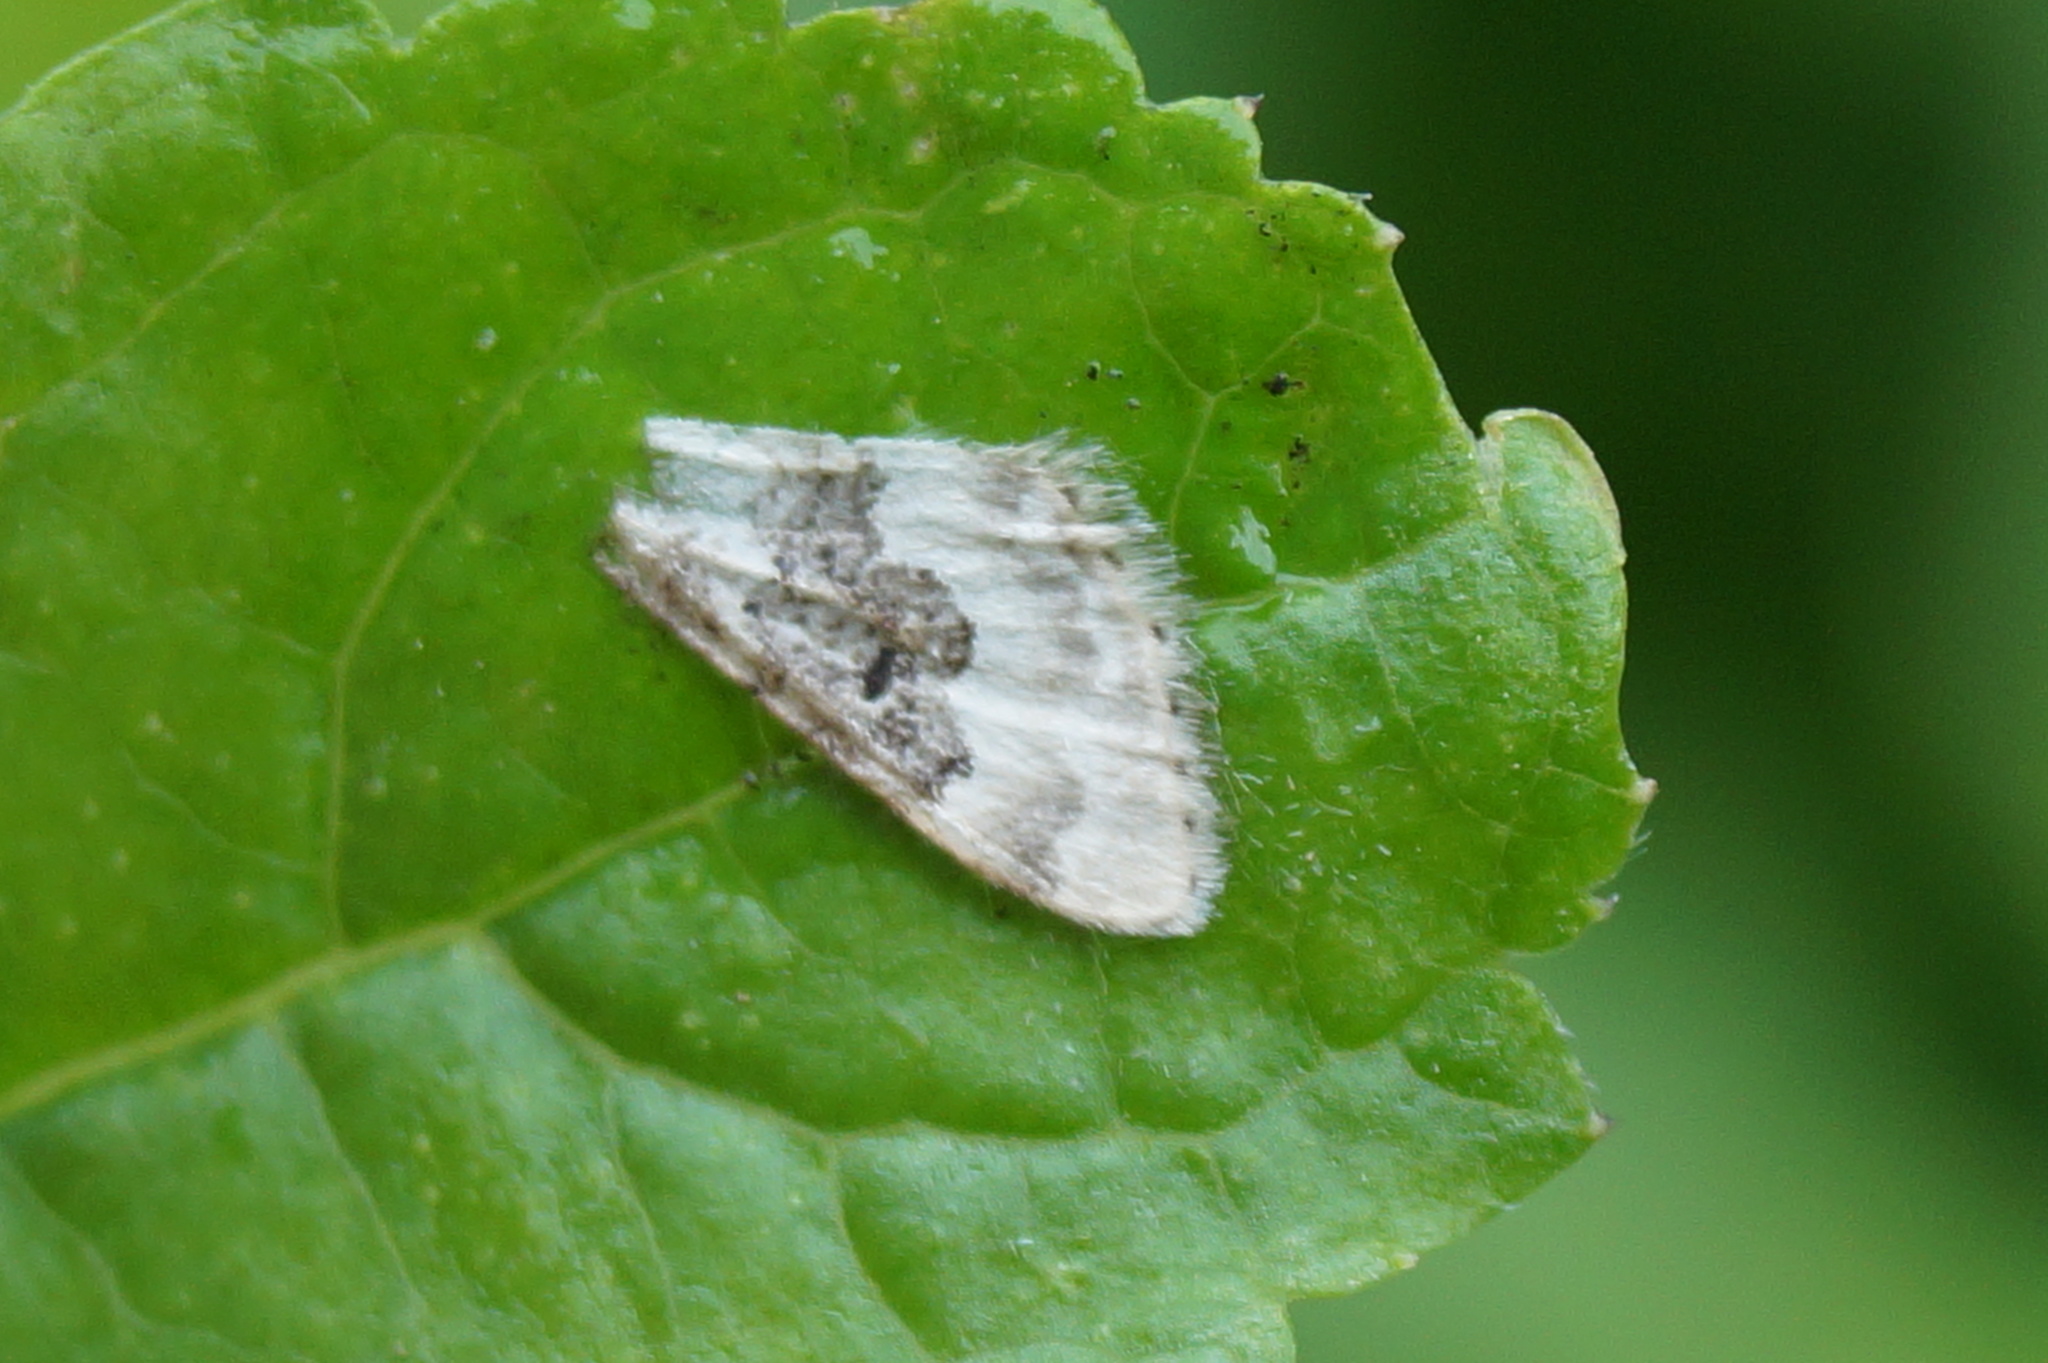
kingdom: Animalia
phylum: Arthropoda
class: Insecta
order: Lepidoptera
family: Geometridae
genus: Idaea
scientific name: Idaea rusticata
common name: Least carpet
